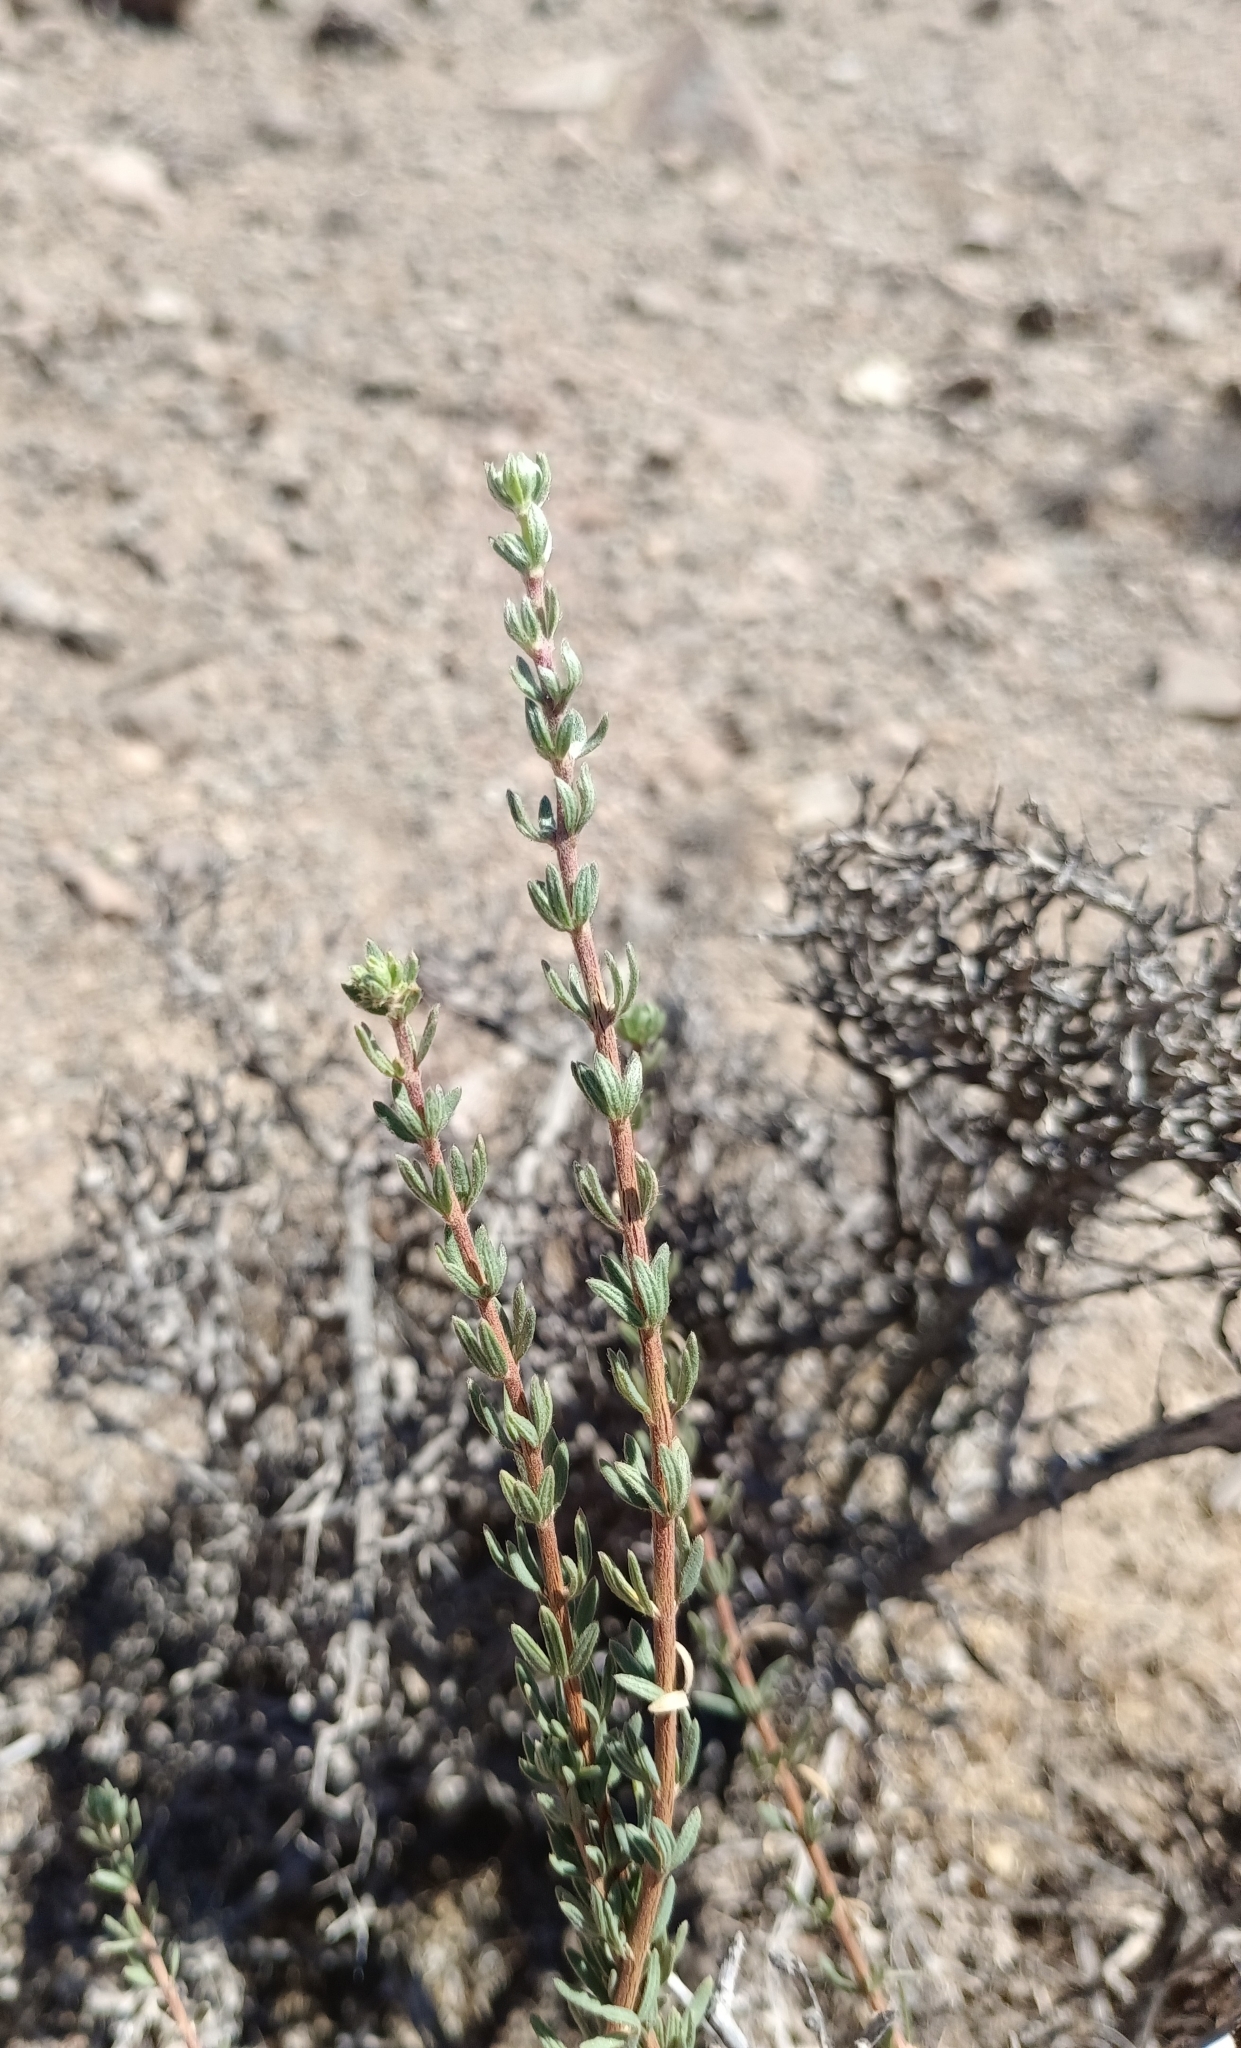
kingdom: Plantae
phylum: Tracheophyta
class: Magnoliopsida
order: Geraniales
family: Vivianiaceae
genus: Balbisia
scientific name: Balbisia peduncularis
